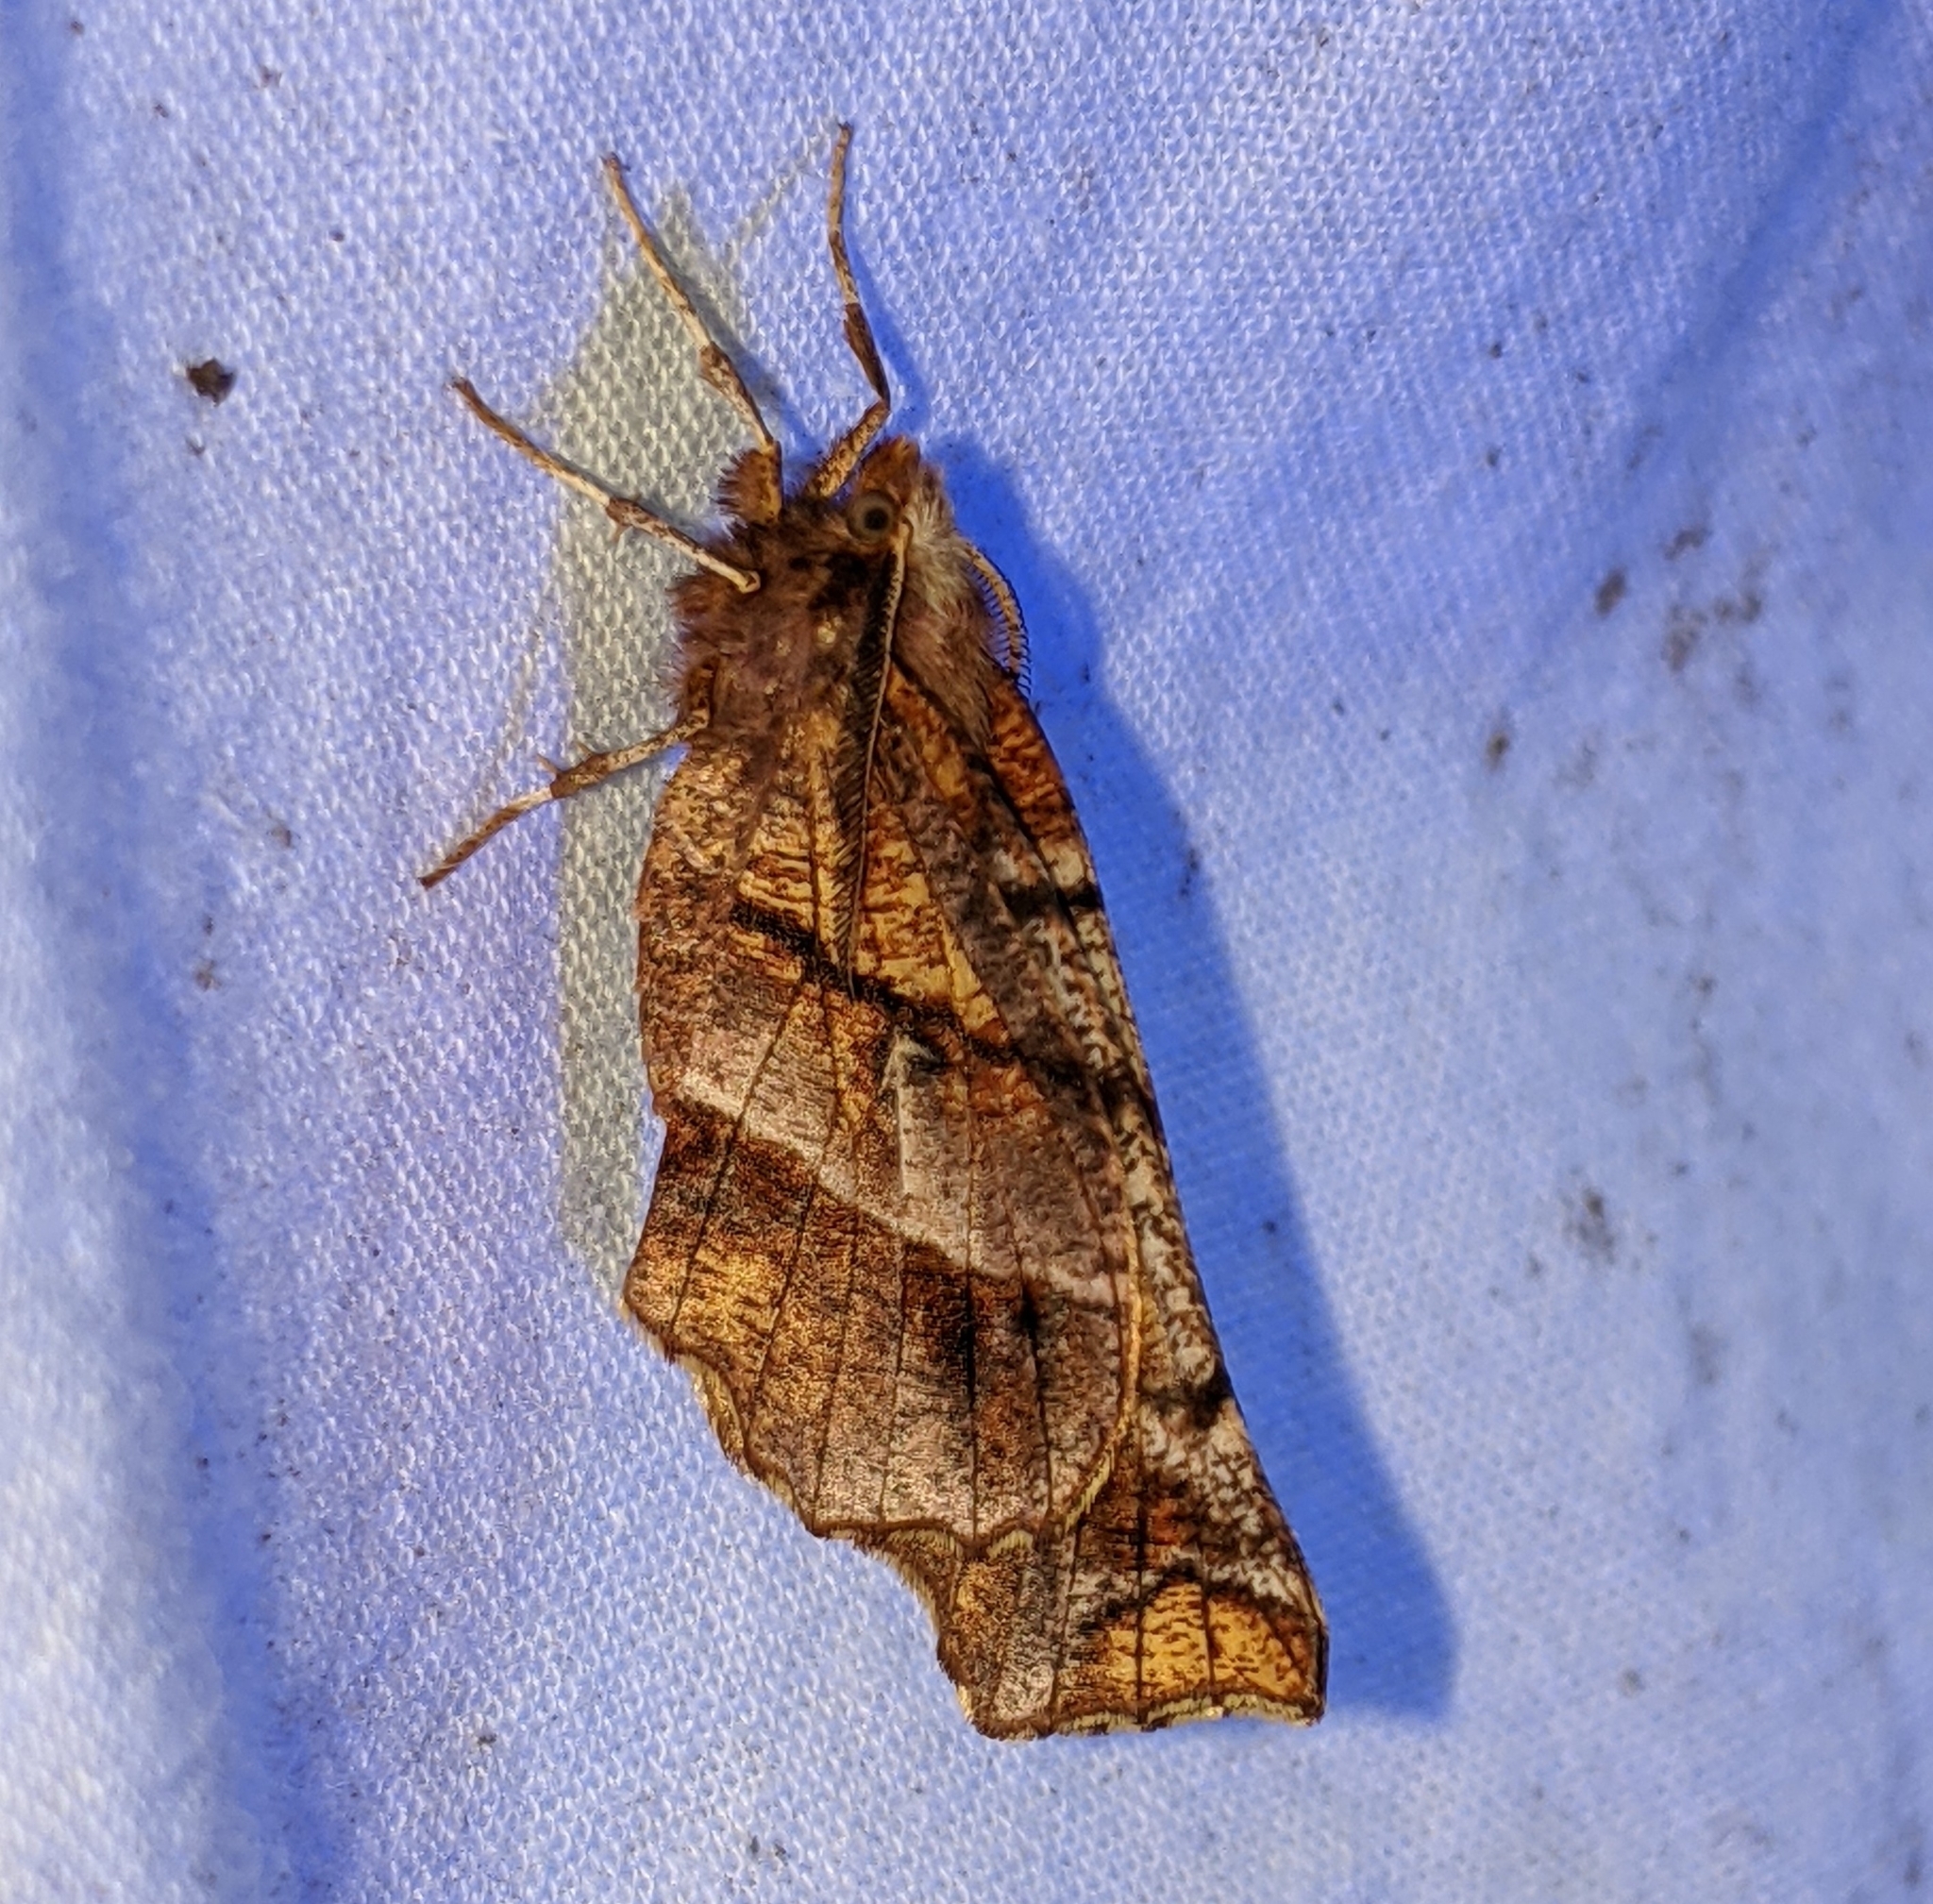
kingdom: Animalia
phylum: Arthropoda
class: Insecta
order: Lepidoptera
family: Geometridae
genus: Selenia
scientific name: Selenia alciphearia
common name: Brown-tipped thorn
